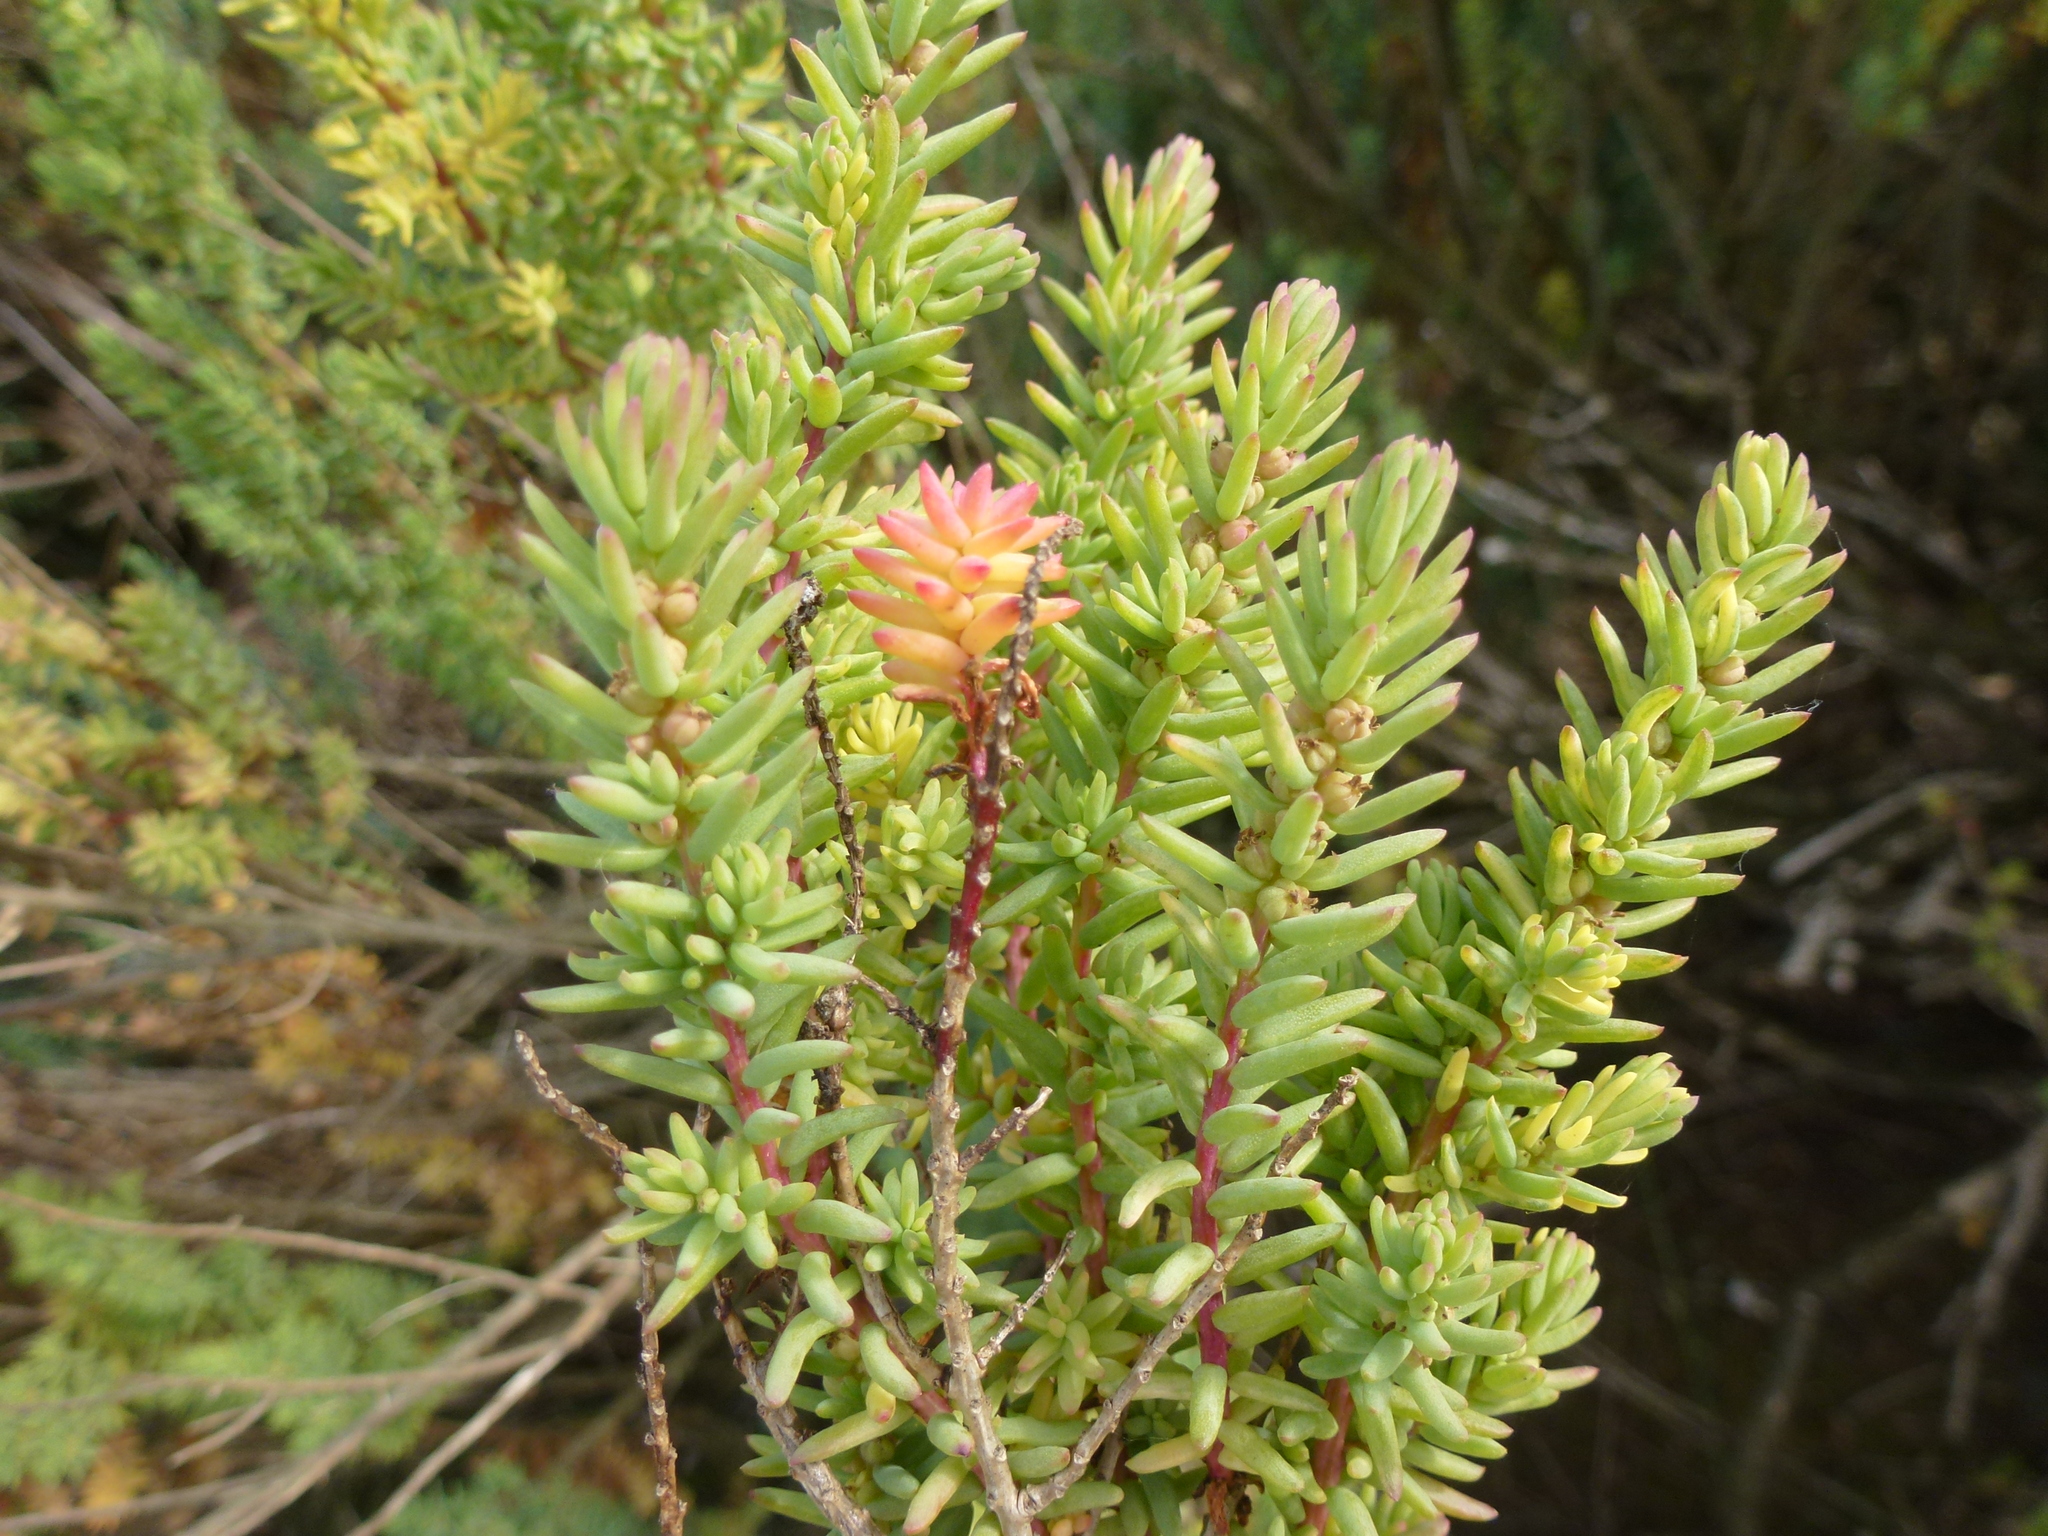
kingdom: Plantae
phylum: Tracheophyta
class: Magnoliopsida
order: Caryophyllales
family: Amaranthaceae
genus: Suaeda
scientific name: Suaeda vera
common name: Shrubby sea-blite
